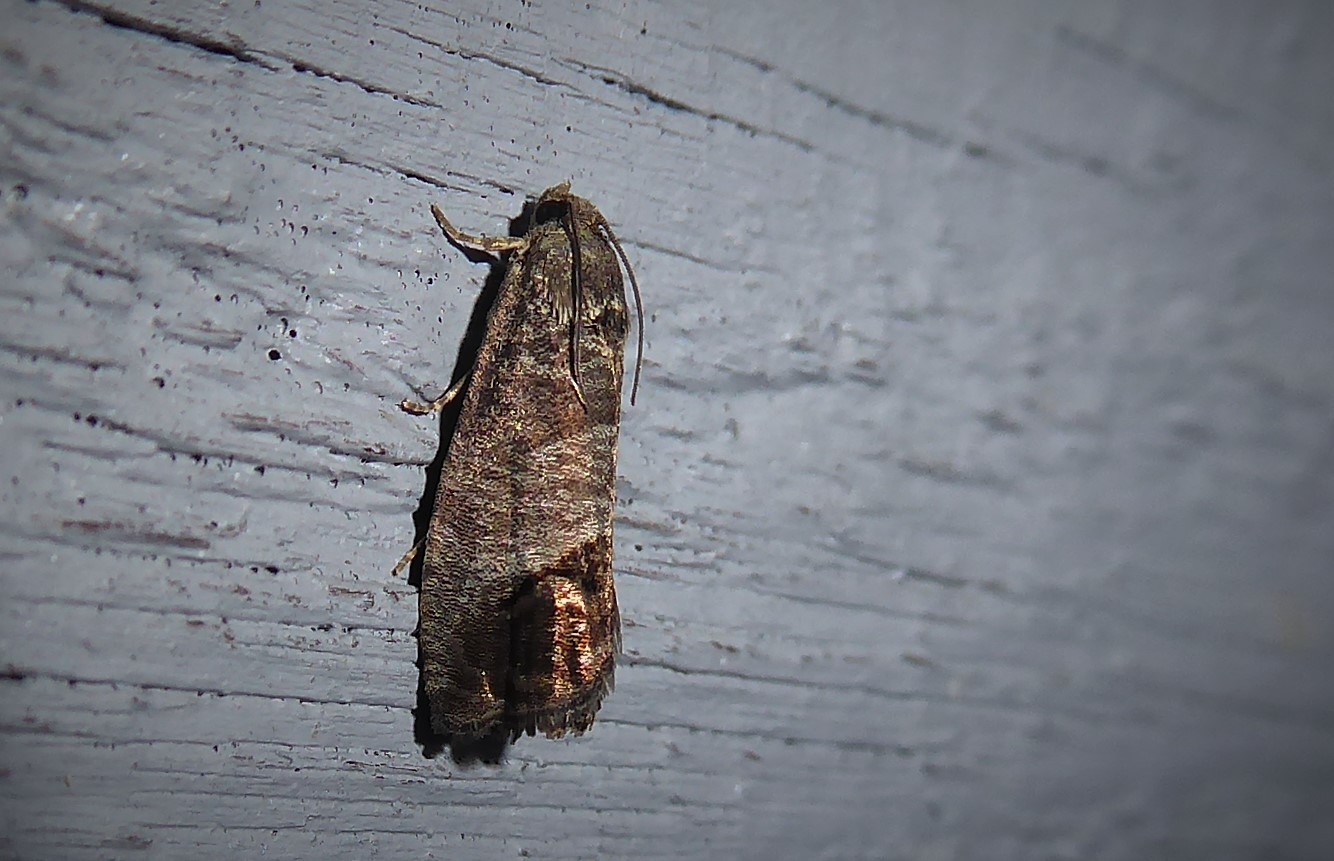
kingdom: Animalia
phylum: Arthropoda
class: Insecta
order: Lepidoptera
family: Tortricidae
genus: Cydia
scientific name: Cydia pomonella
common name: Codling moth
